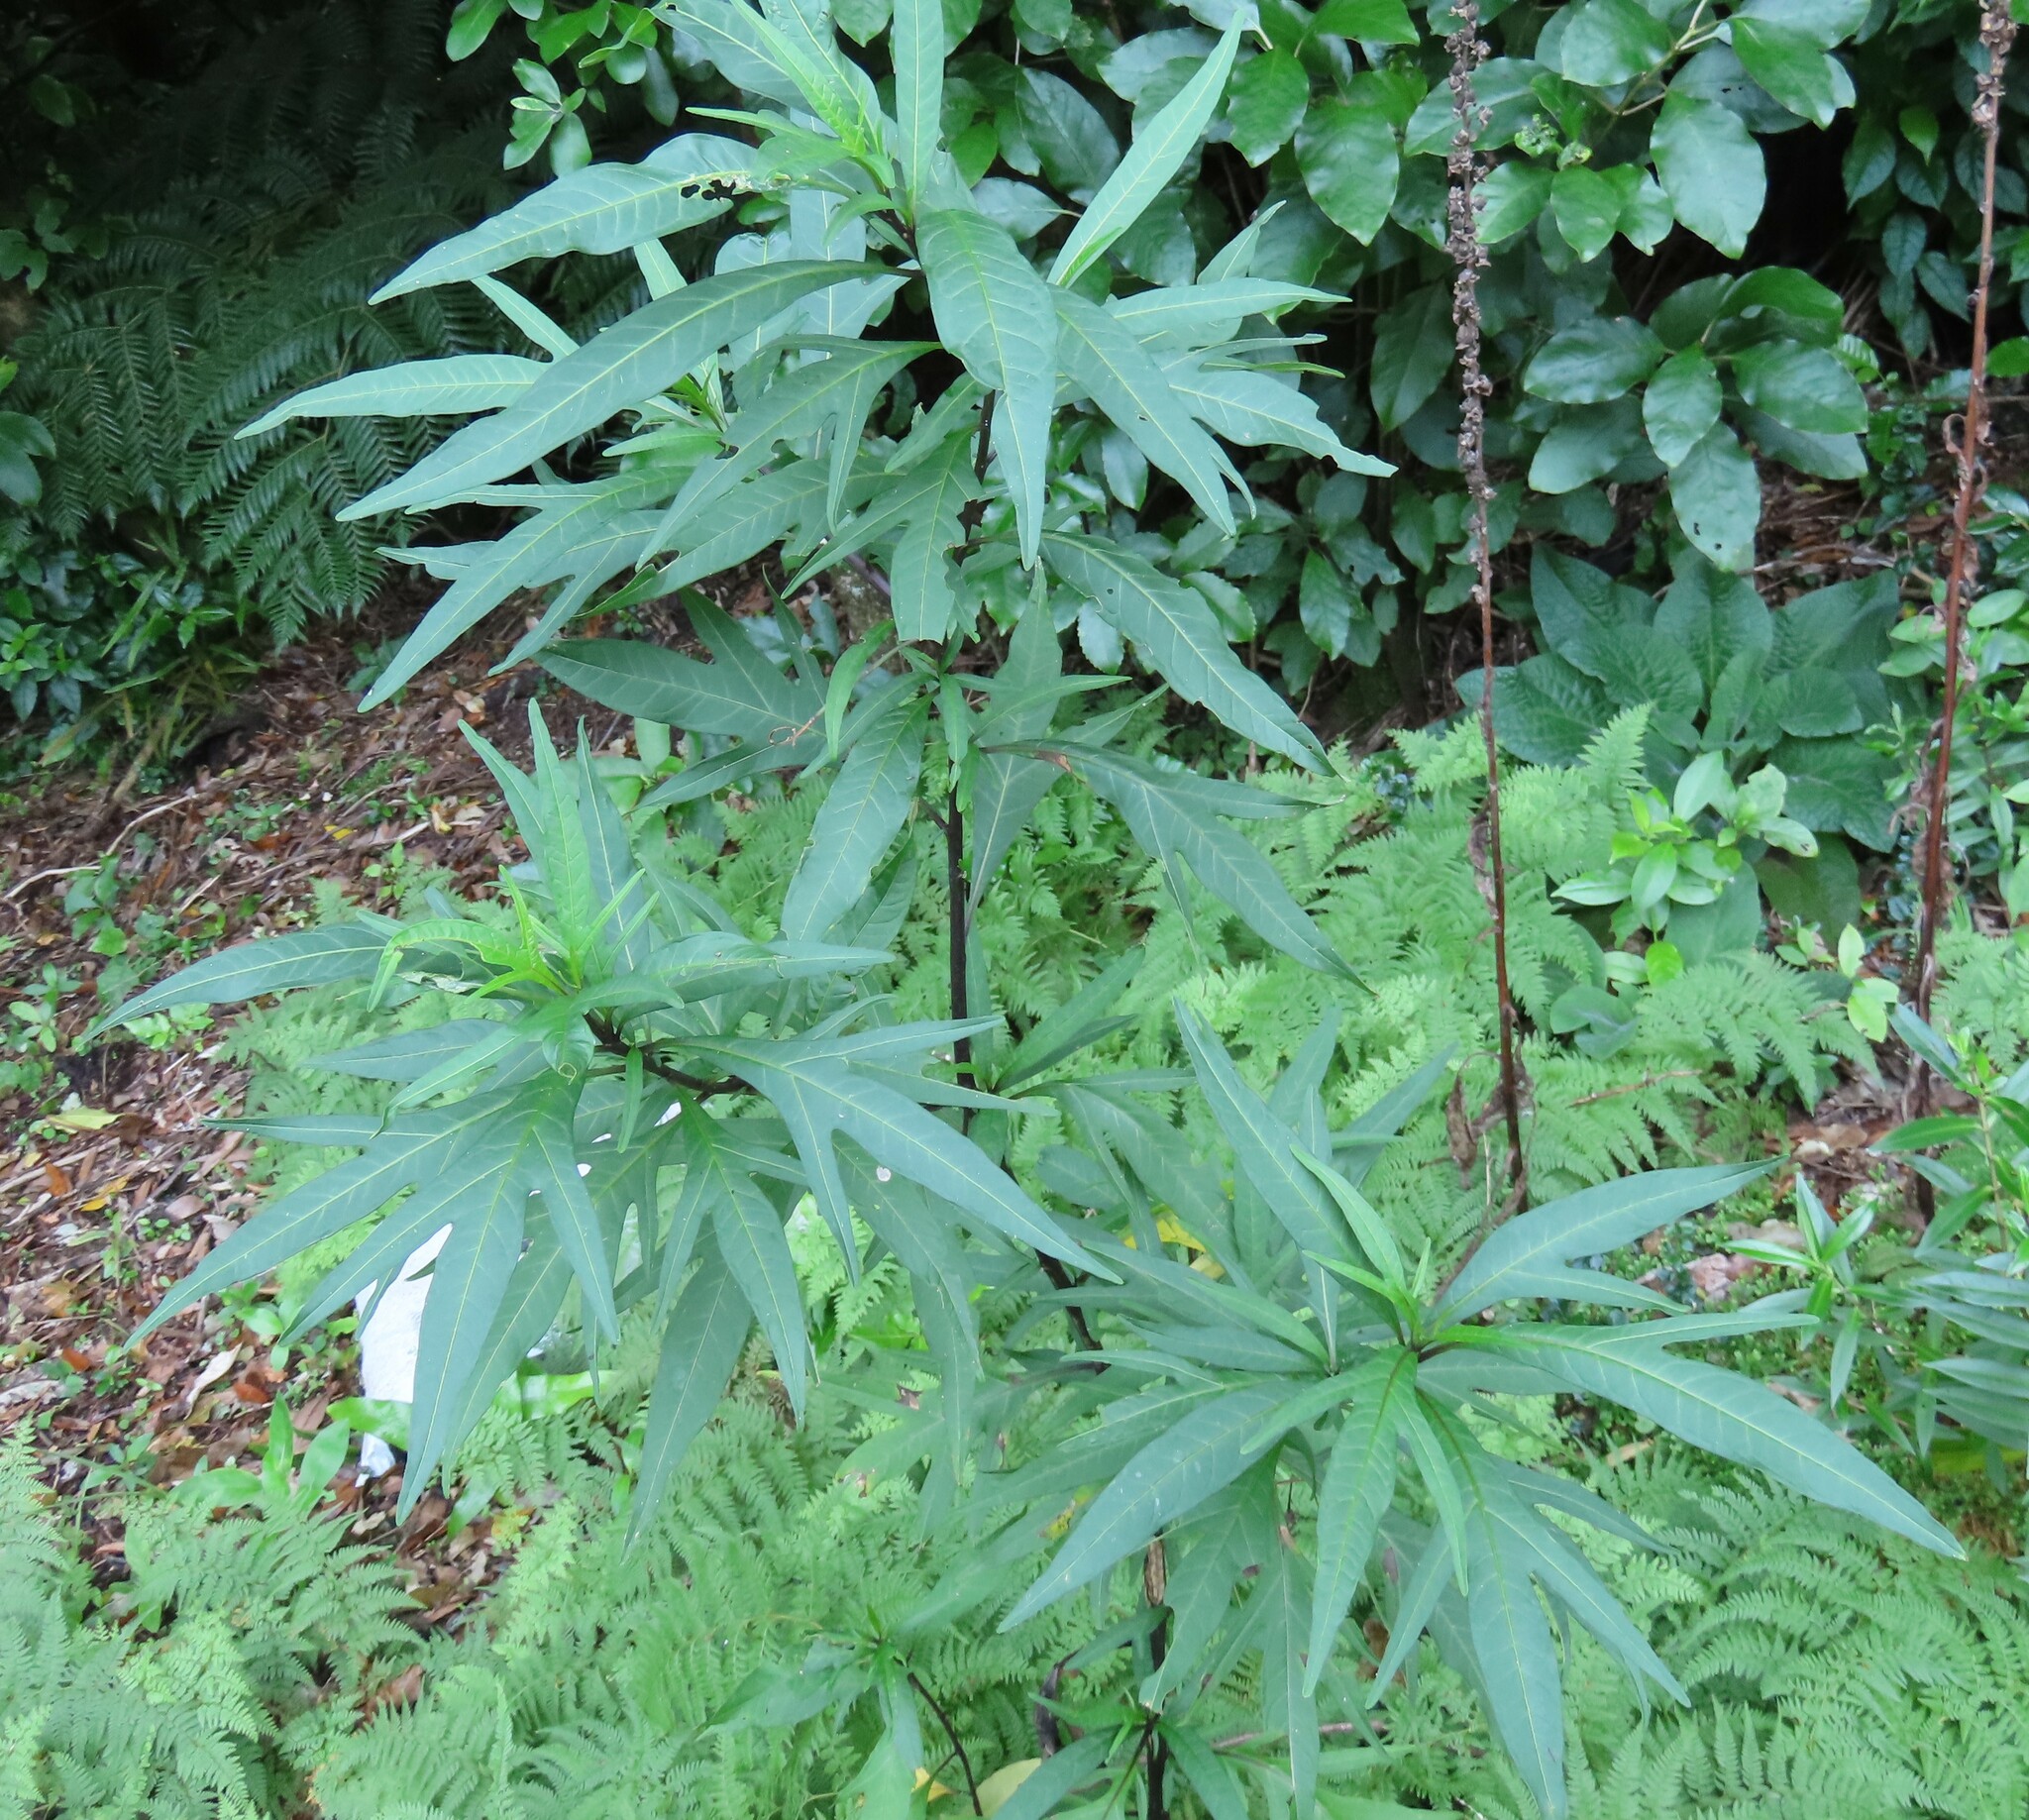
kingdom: Plantae
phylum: Tracheophyta
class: Magnoliopsida
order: Solanales
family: Solanaceae
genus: Solanum
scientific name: Solanum laciniatum
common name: Kangaroo-apple
